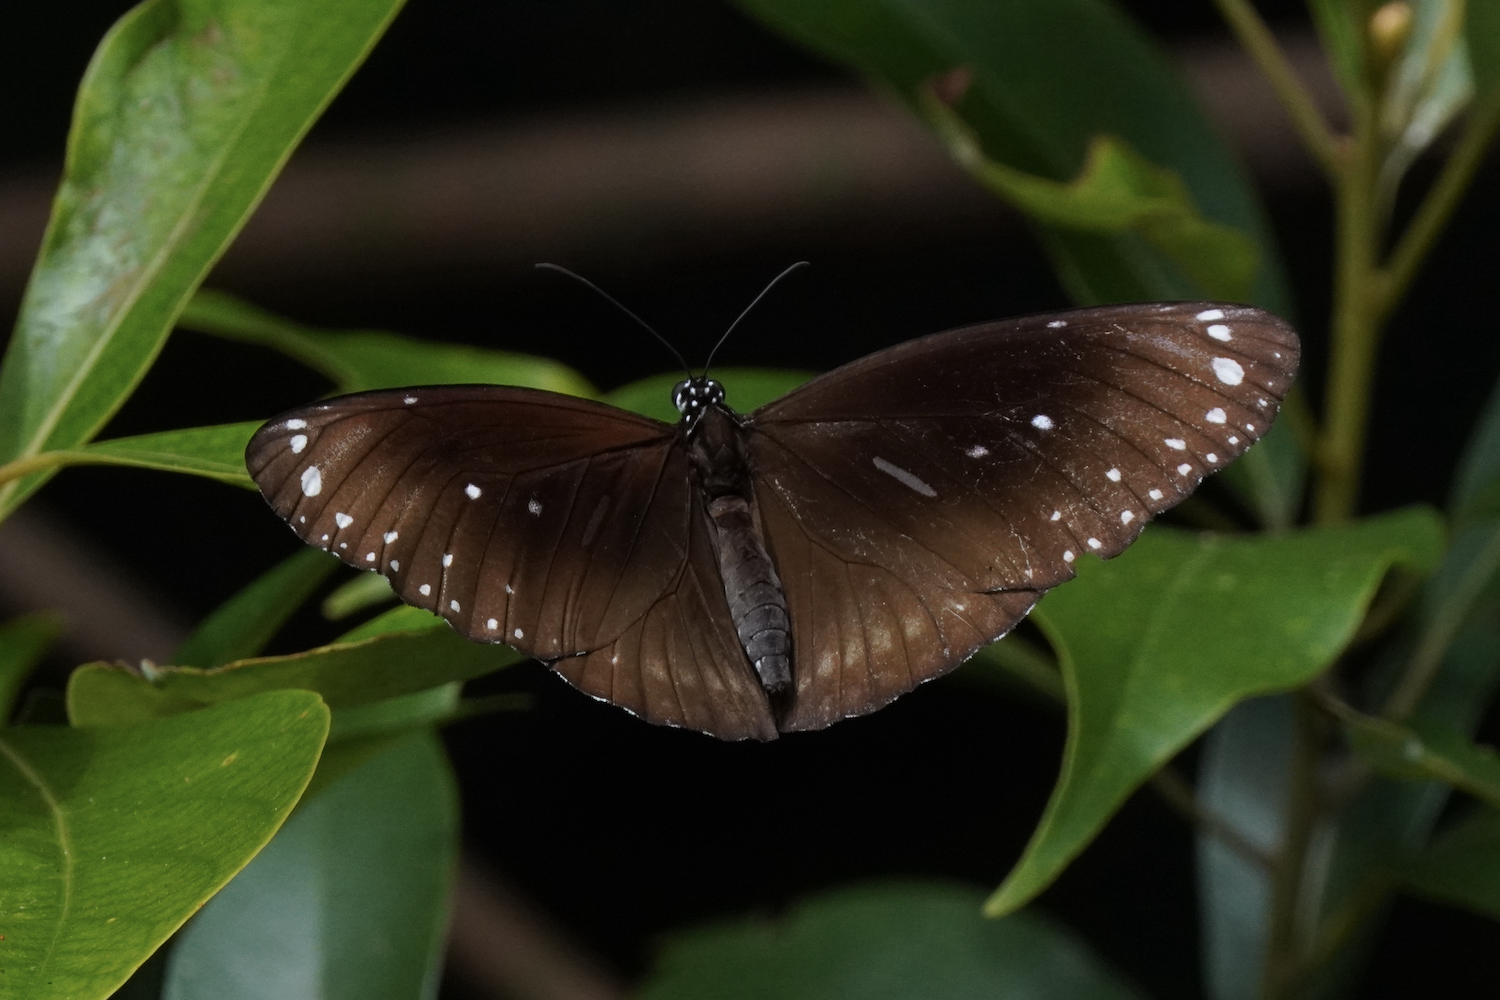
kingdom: Animalia
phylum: Arthropoda
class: Insecta
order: Lepidoptera
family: Nymphalidae
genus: Euploea
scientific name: Euploea core
